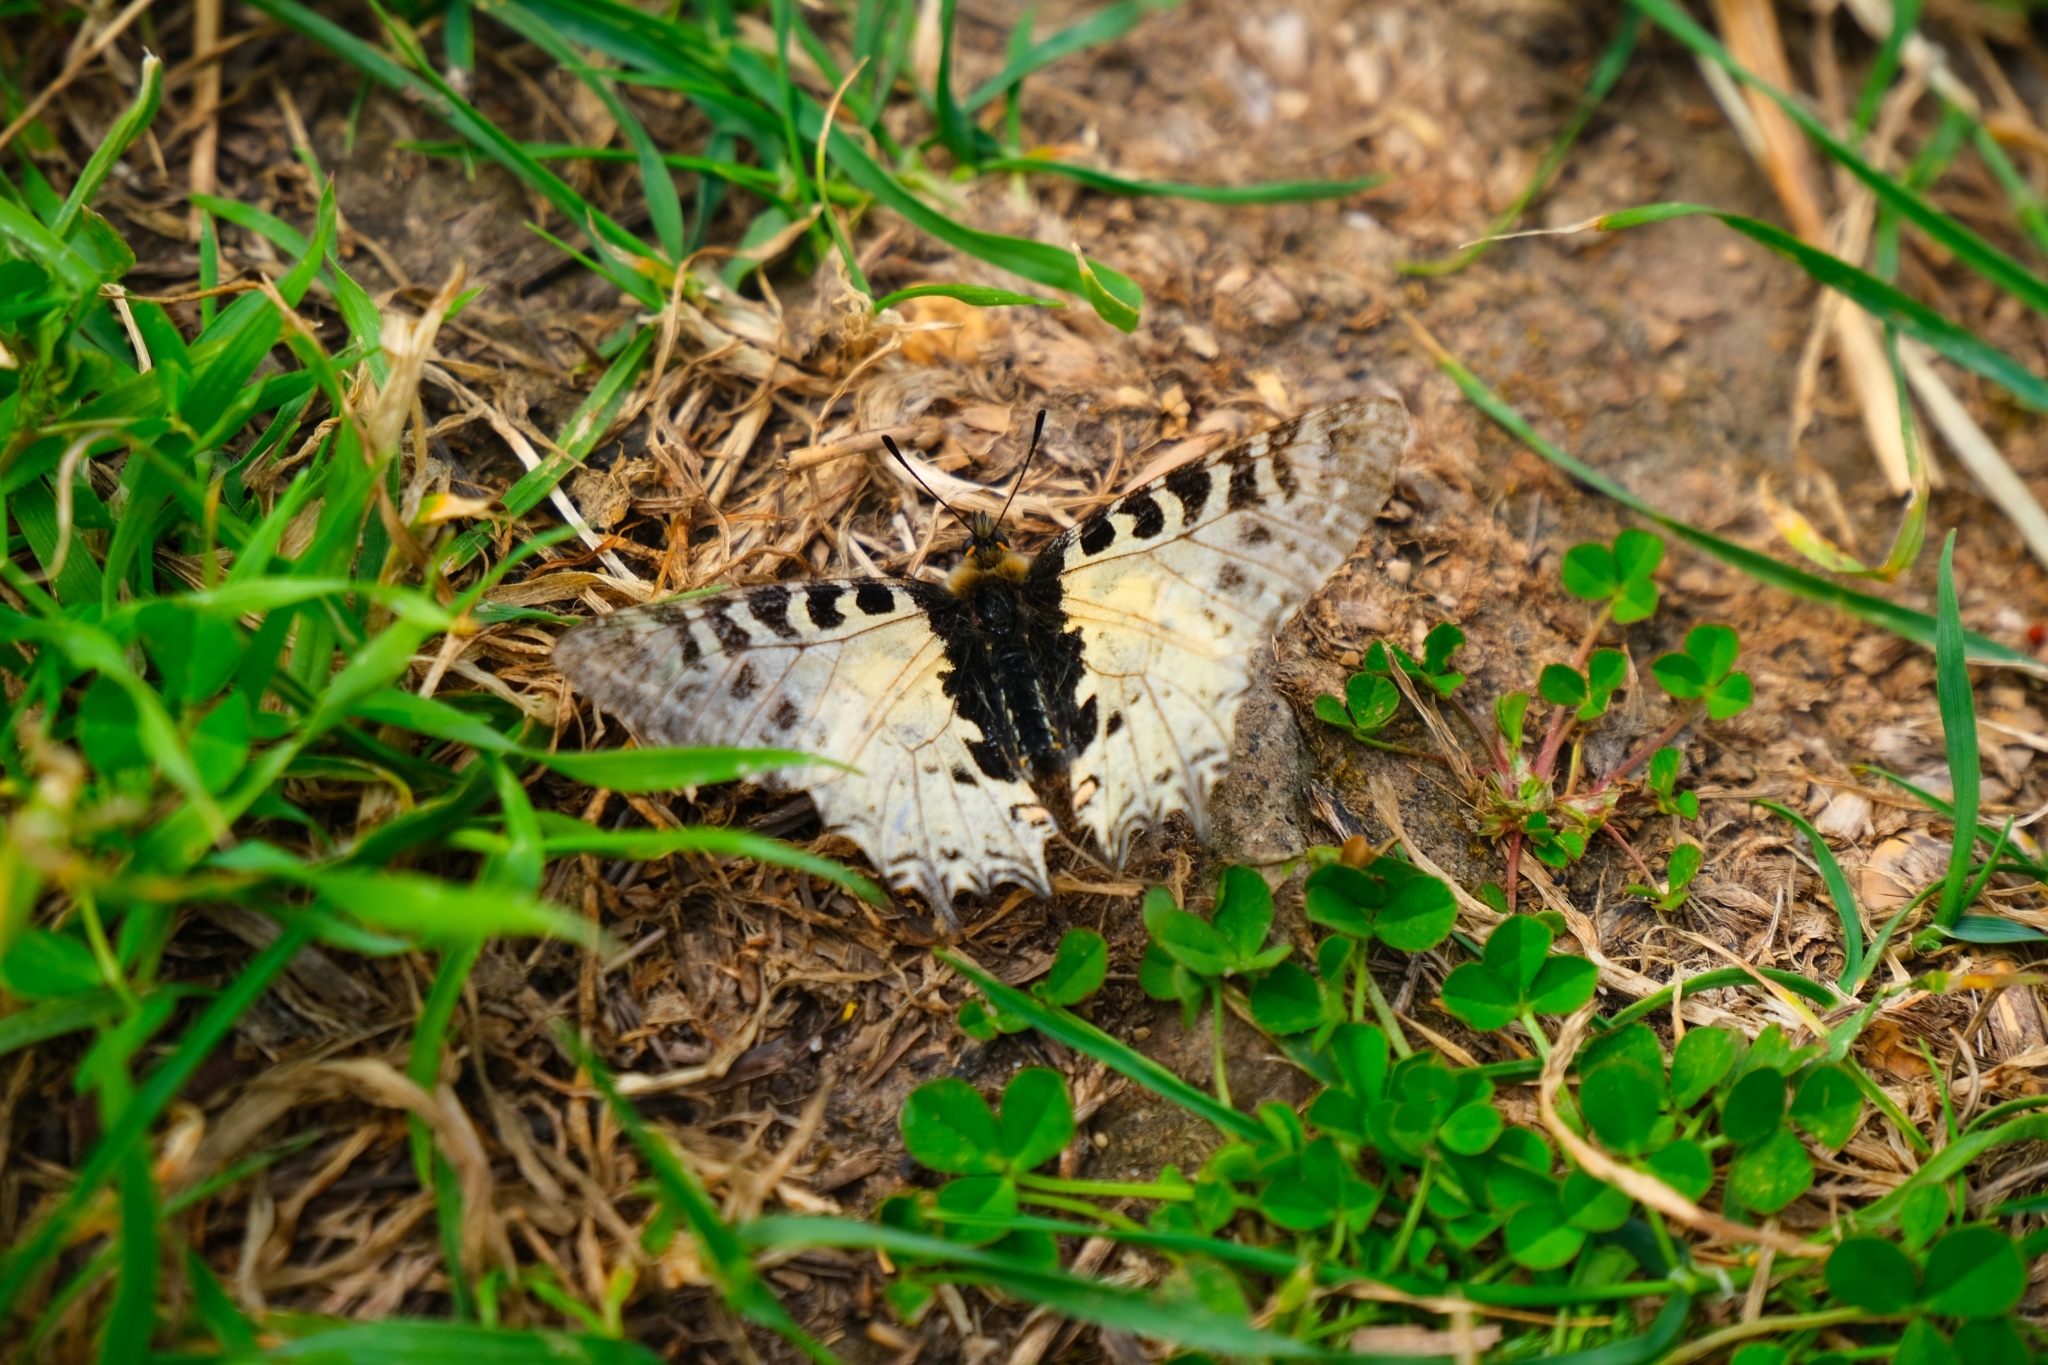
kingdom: Animalia
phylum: Arthropoda
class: Insecta
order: Lepidoptera
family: Papilionidae
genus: Zerynthia
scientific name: Zerynthia cerisy
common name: Eastern festoon
